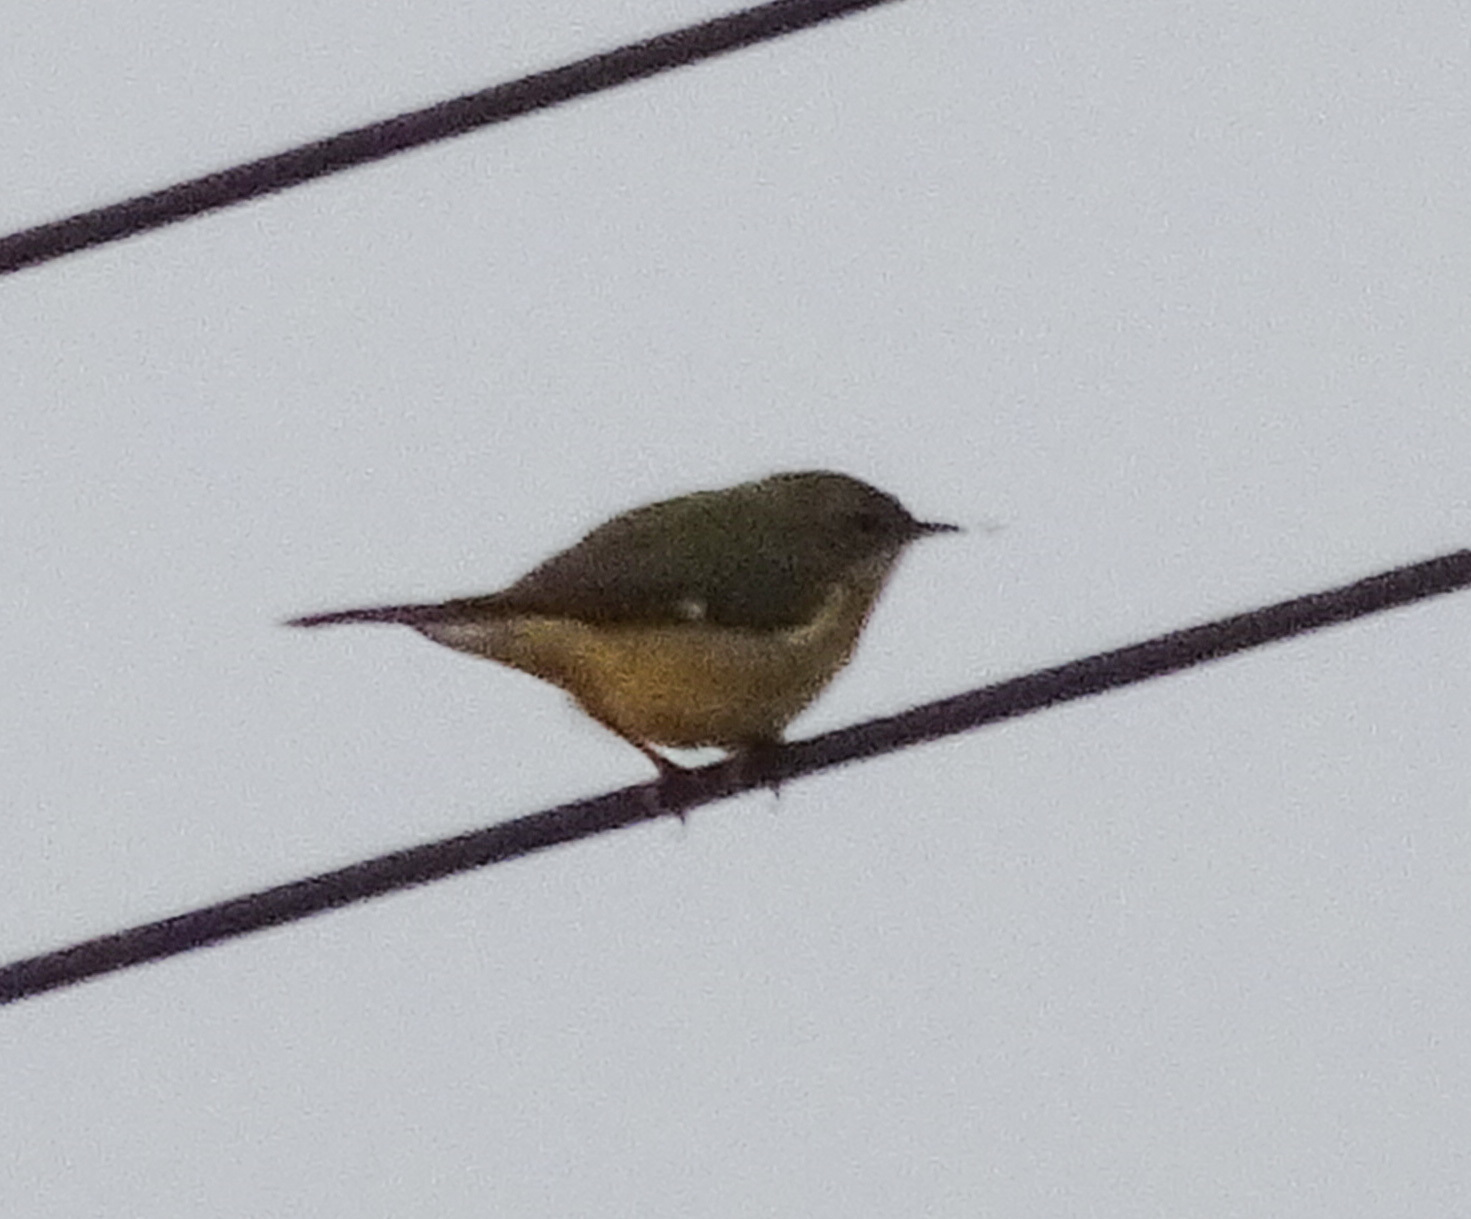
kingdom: Animalia
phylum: Chordata
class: Aves
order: Passeriformes
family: Parulidae
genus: Setophaga
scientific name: Setophaga caerulescens
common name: Black-throated blue warbler
